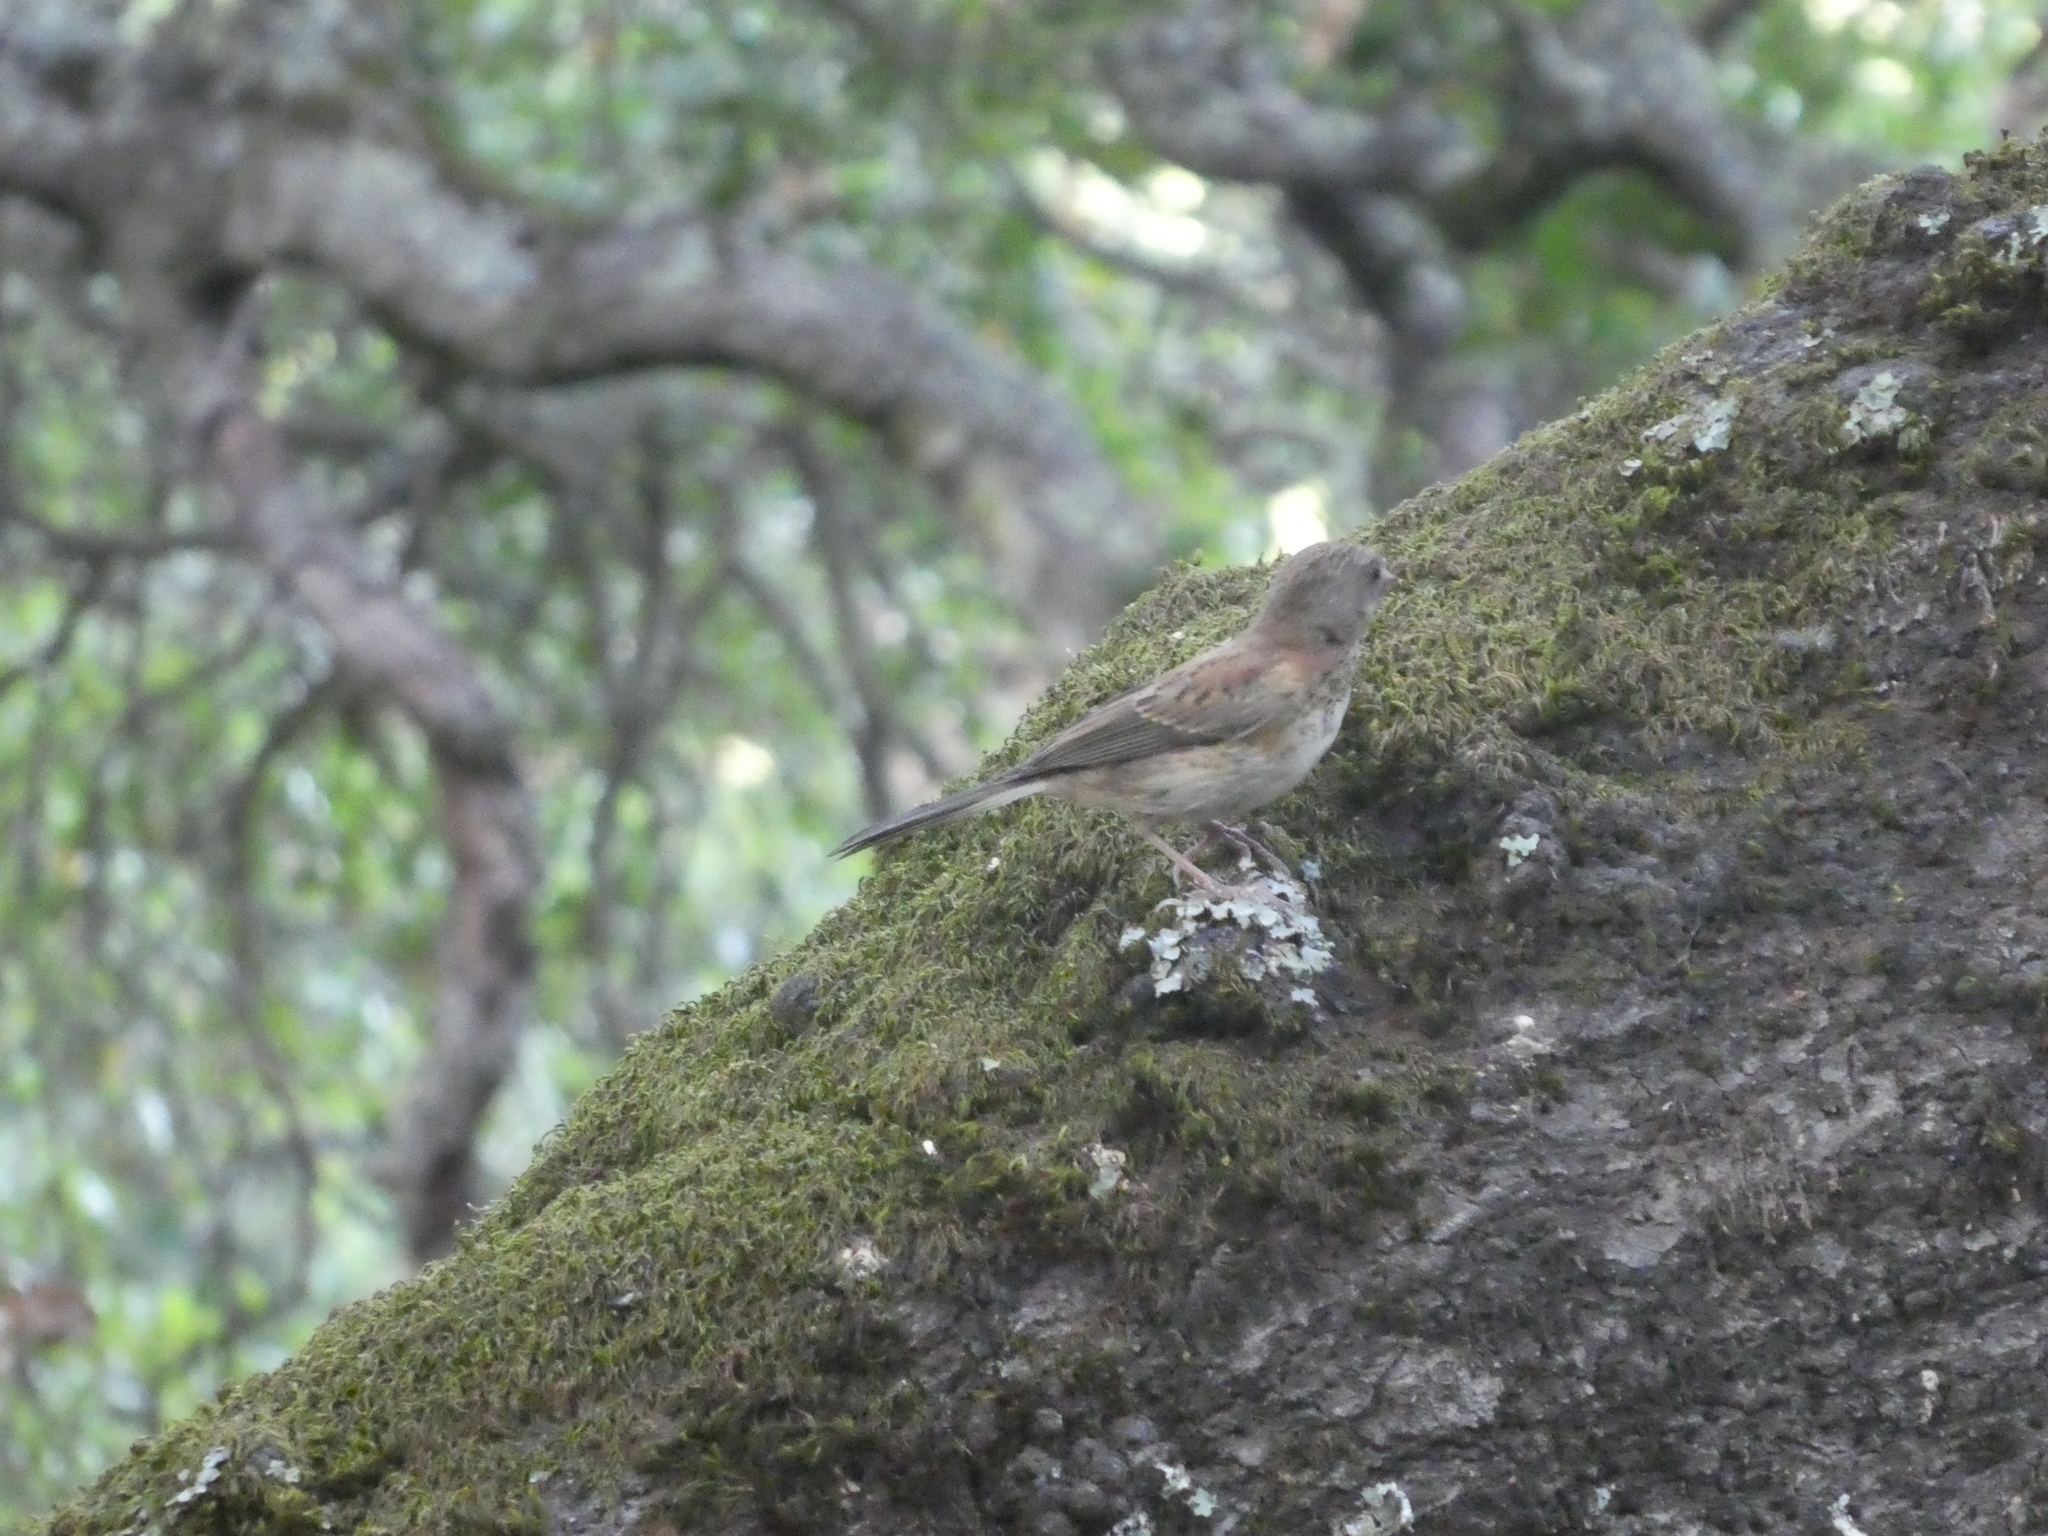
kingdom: Animalia
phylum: Chordata
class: Aves
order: Passeriformes
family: Passerellidae
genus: Junco
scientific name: Junco hyemalis
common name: Dark-eyed junco
